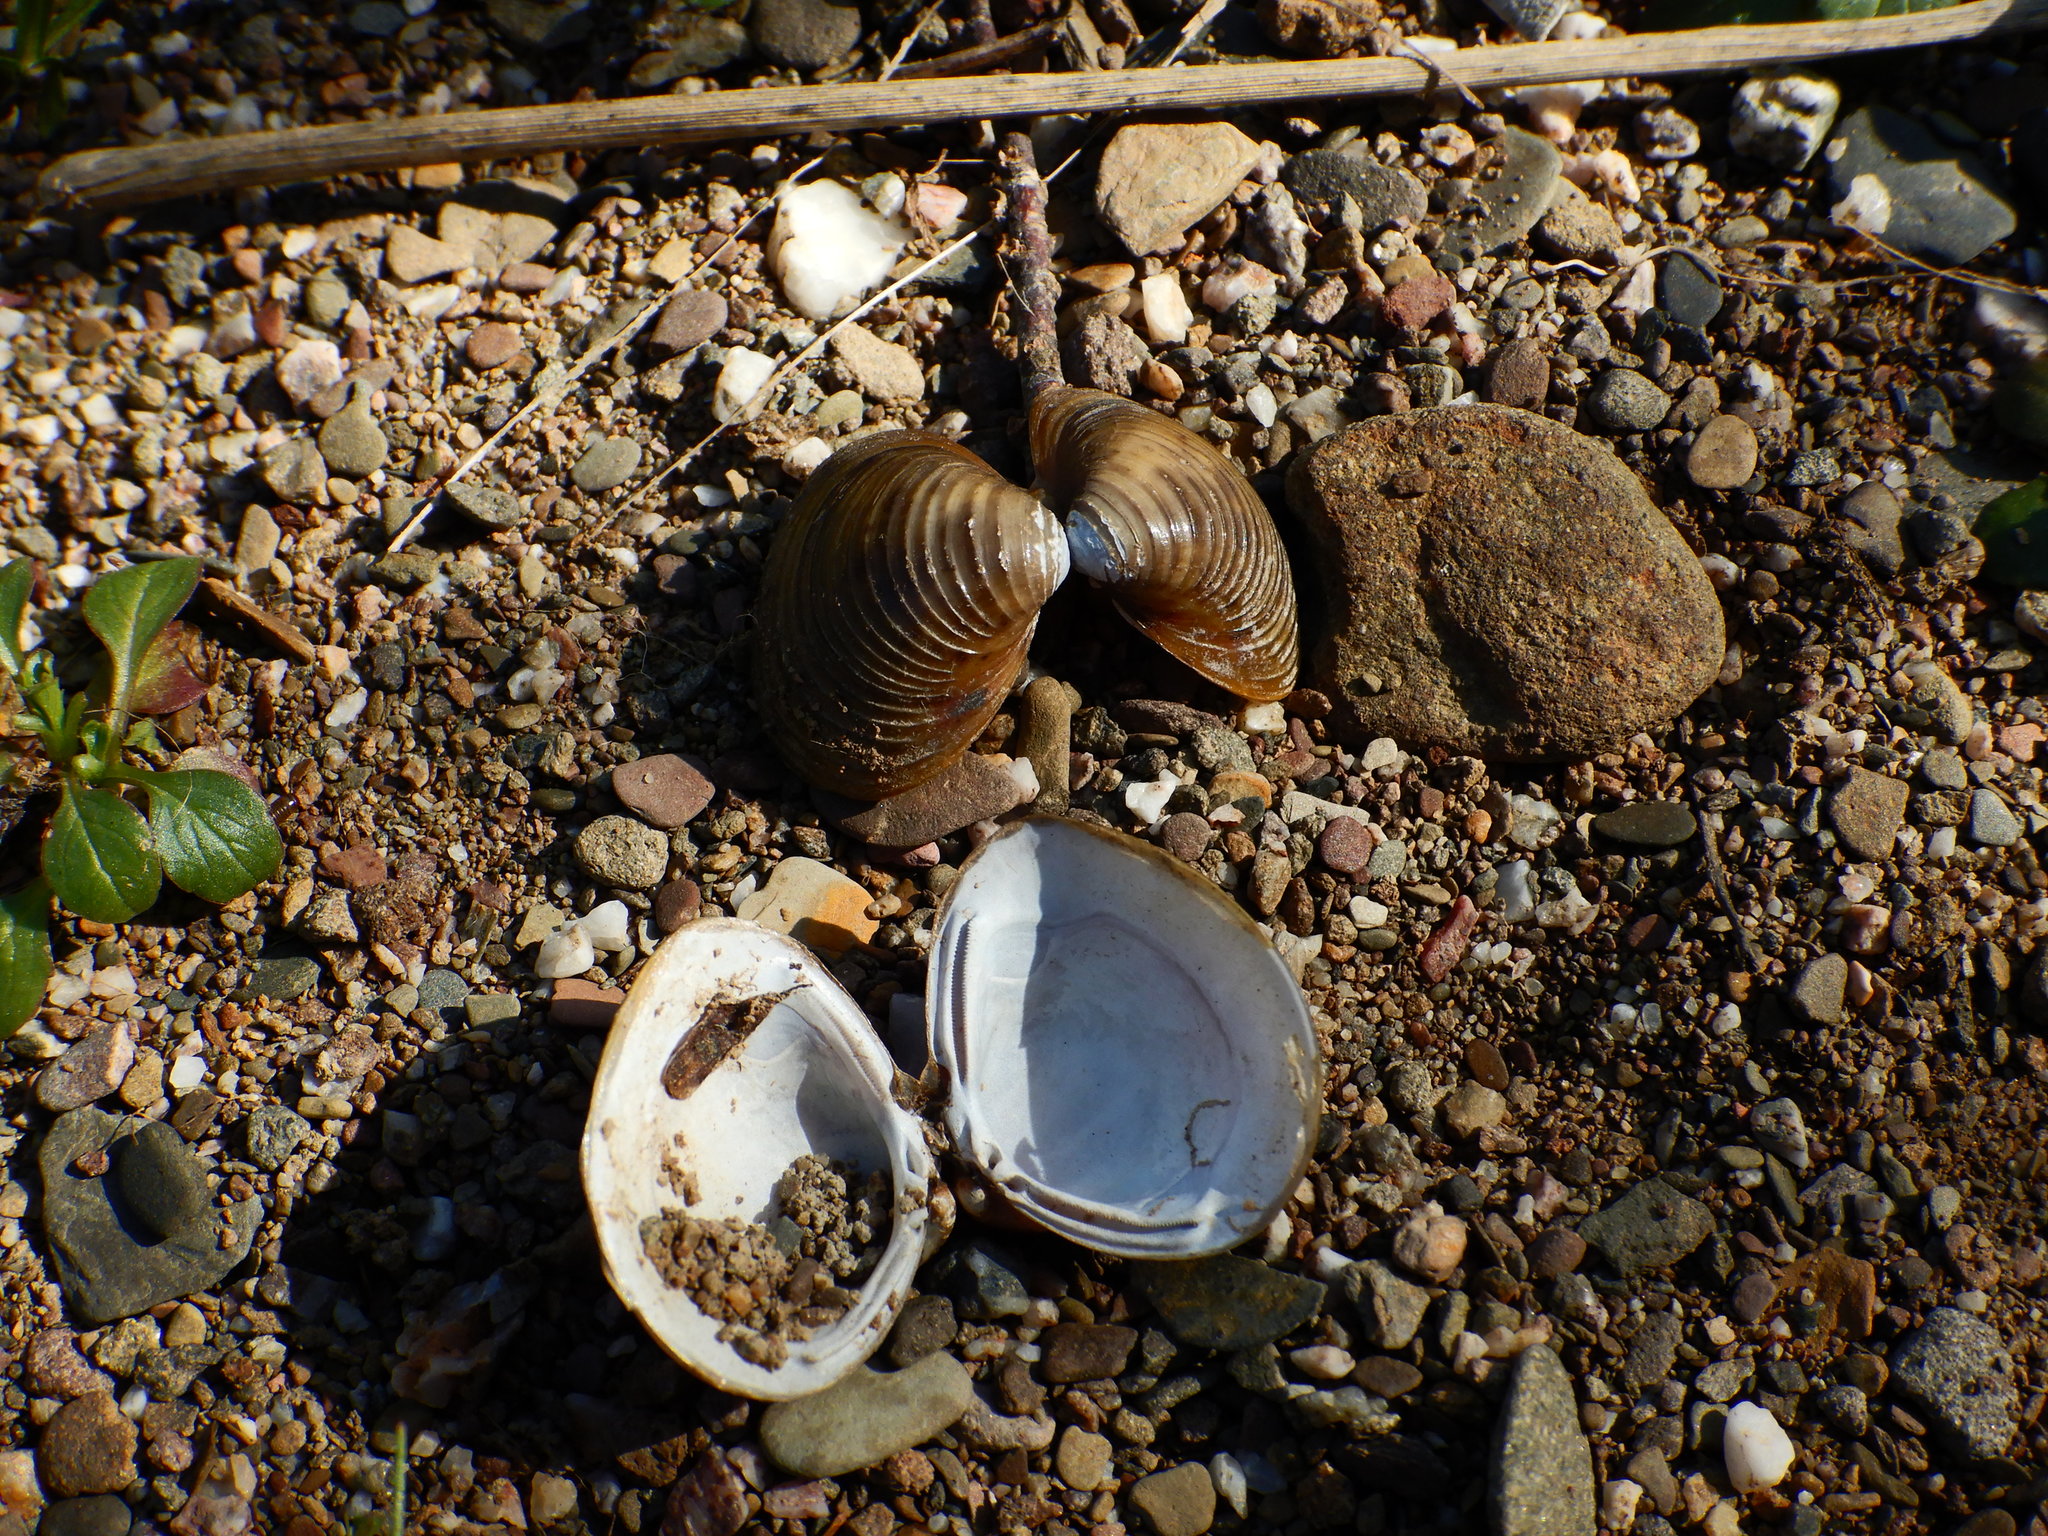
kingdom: Animalia
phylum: Mollusca
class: Bivalvia
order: Venerida
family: Cyrenidae
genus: Corbicula
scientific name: Corbicula fluminea
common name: Asian clam
